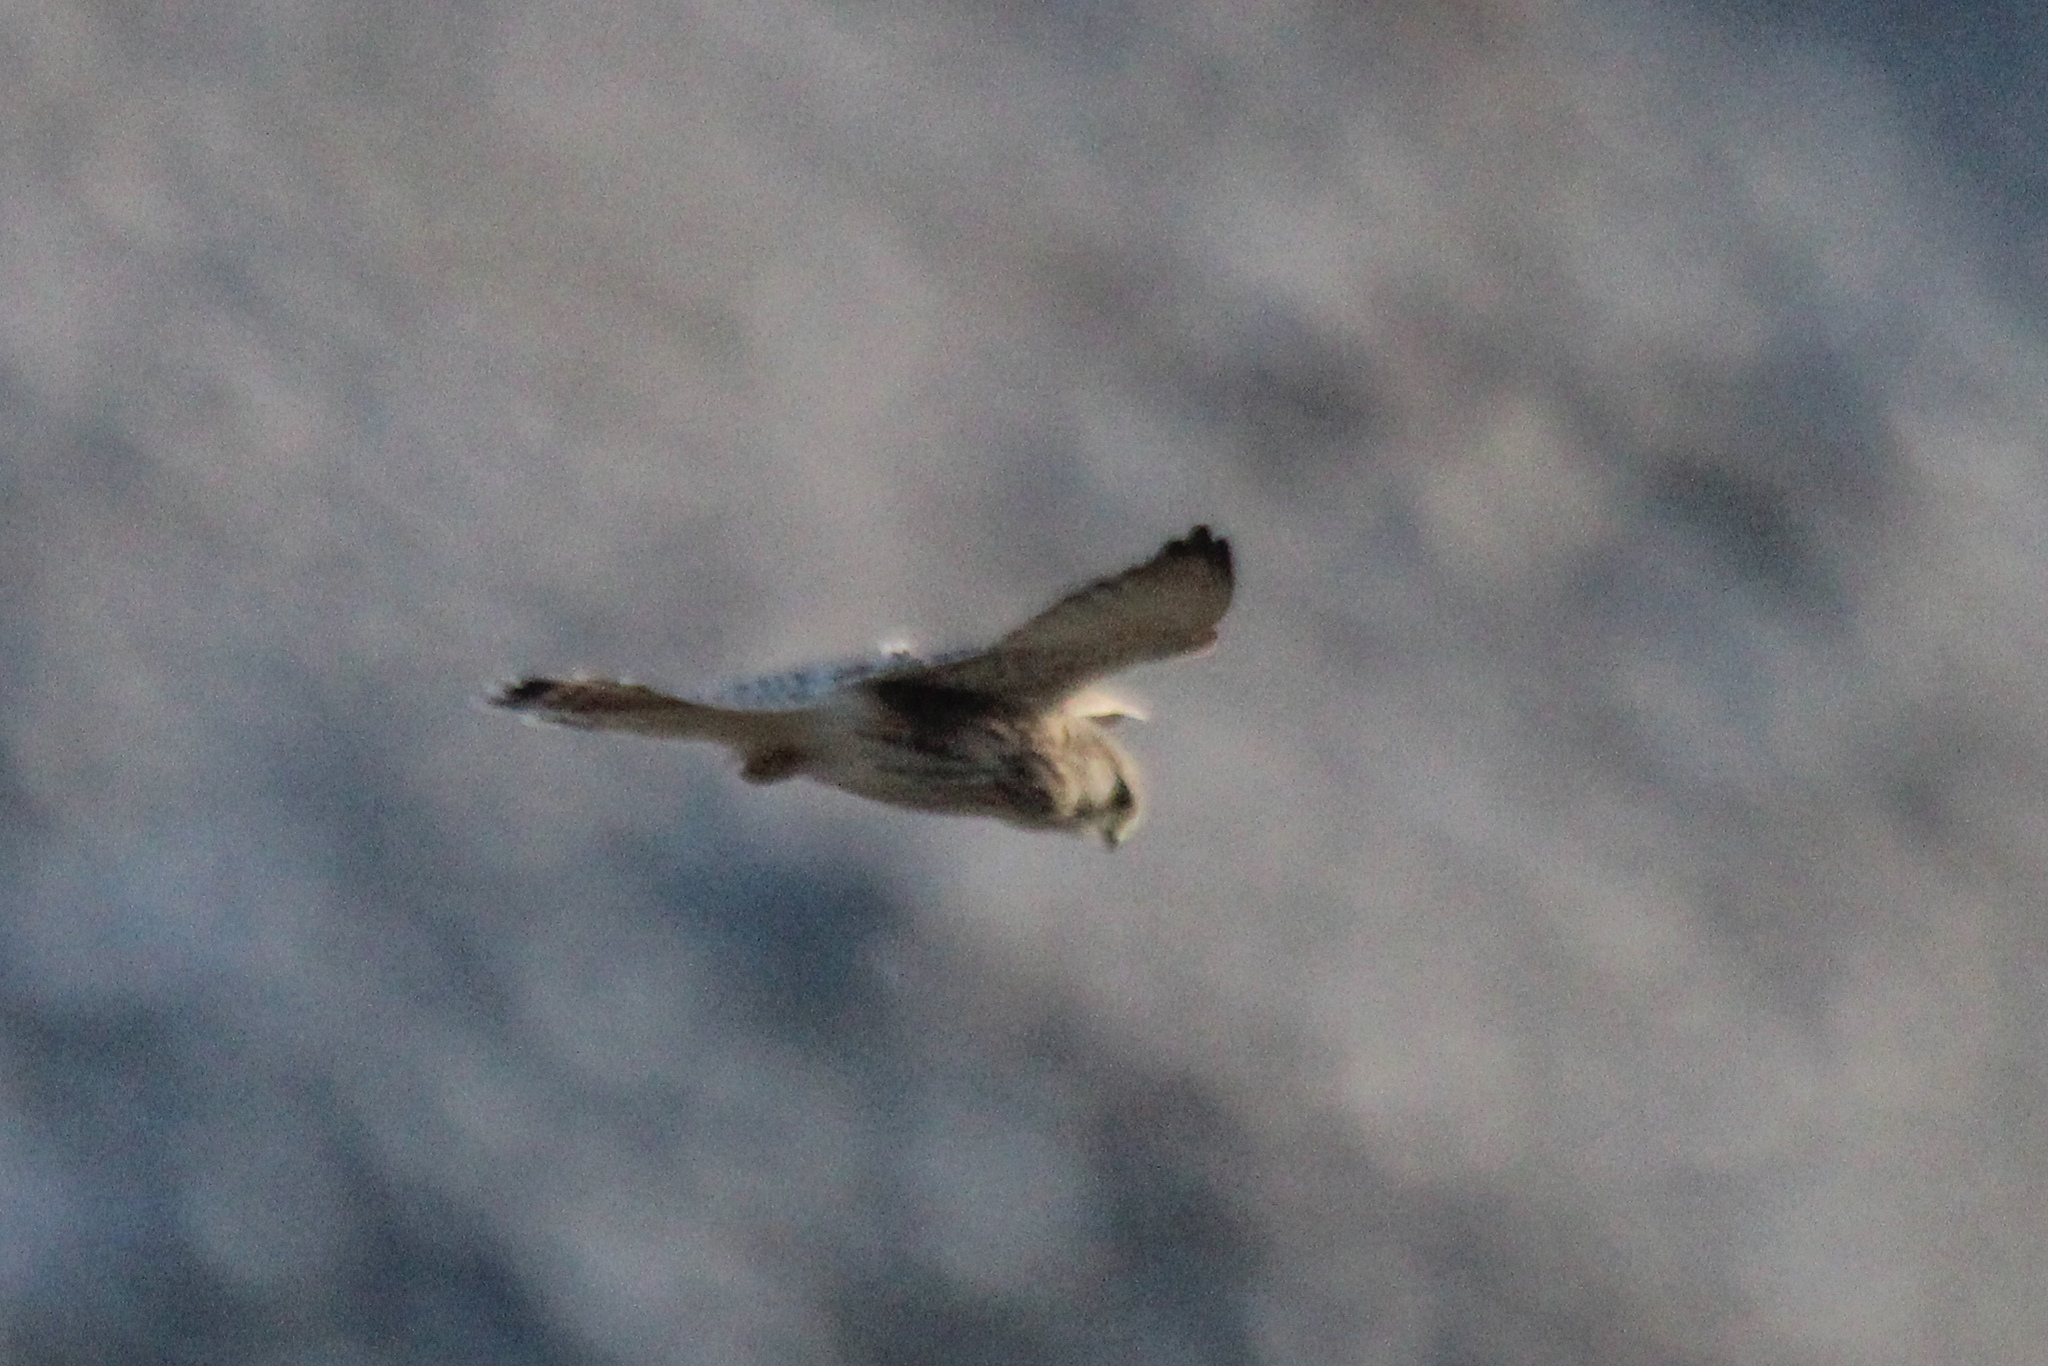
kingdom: Animalia
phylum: Chordata
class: Aves
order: Falconiformes
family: Falconidae
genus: Falco
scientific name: Falco tinnunculus
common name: Common kestrel
